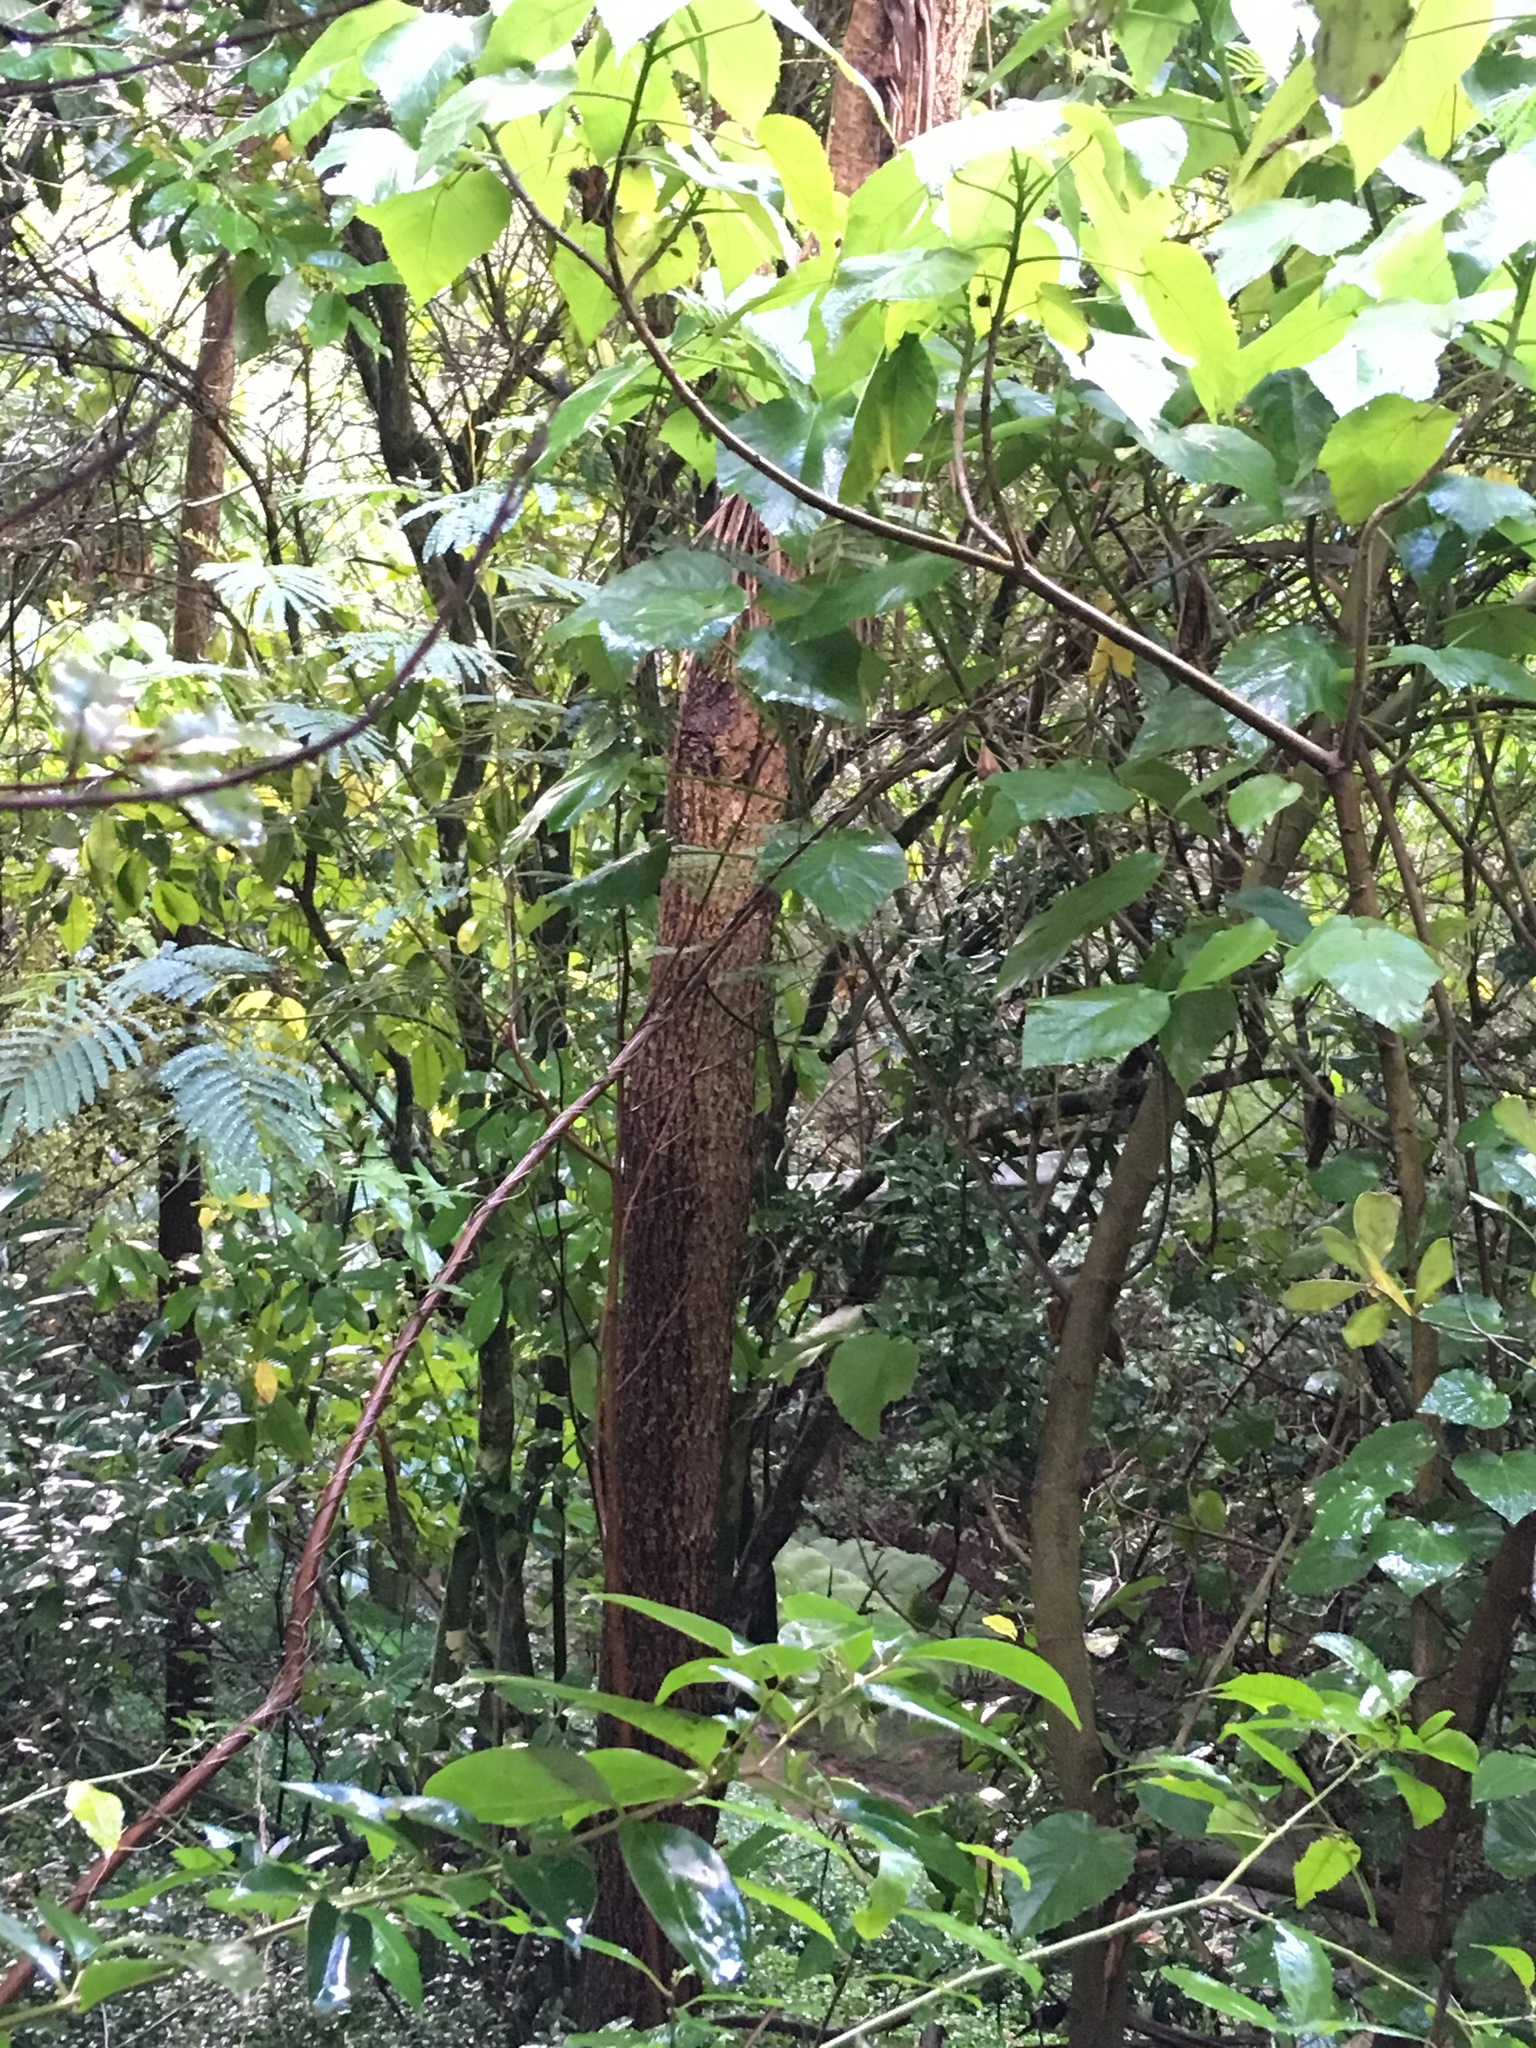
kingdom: Plantae
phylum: Tracheophyta
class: Magnoliopsida
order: Malvales
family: Malvaceae
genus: Entelea
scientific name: Entelea arborescens
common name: New zealand-mulberry
